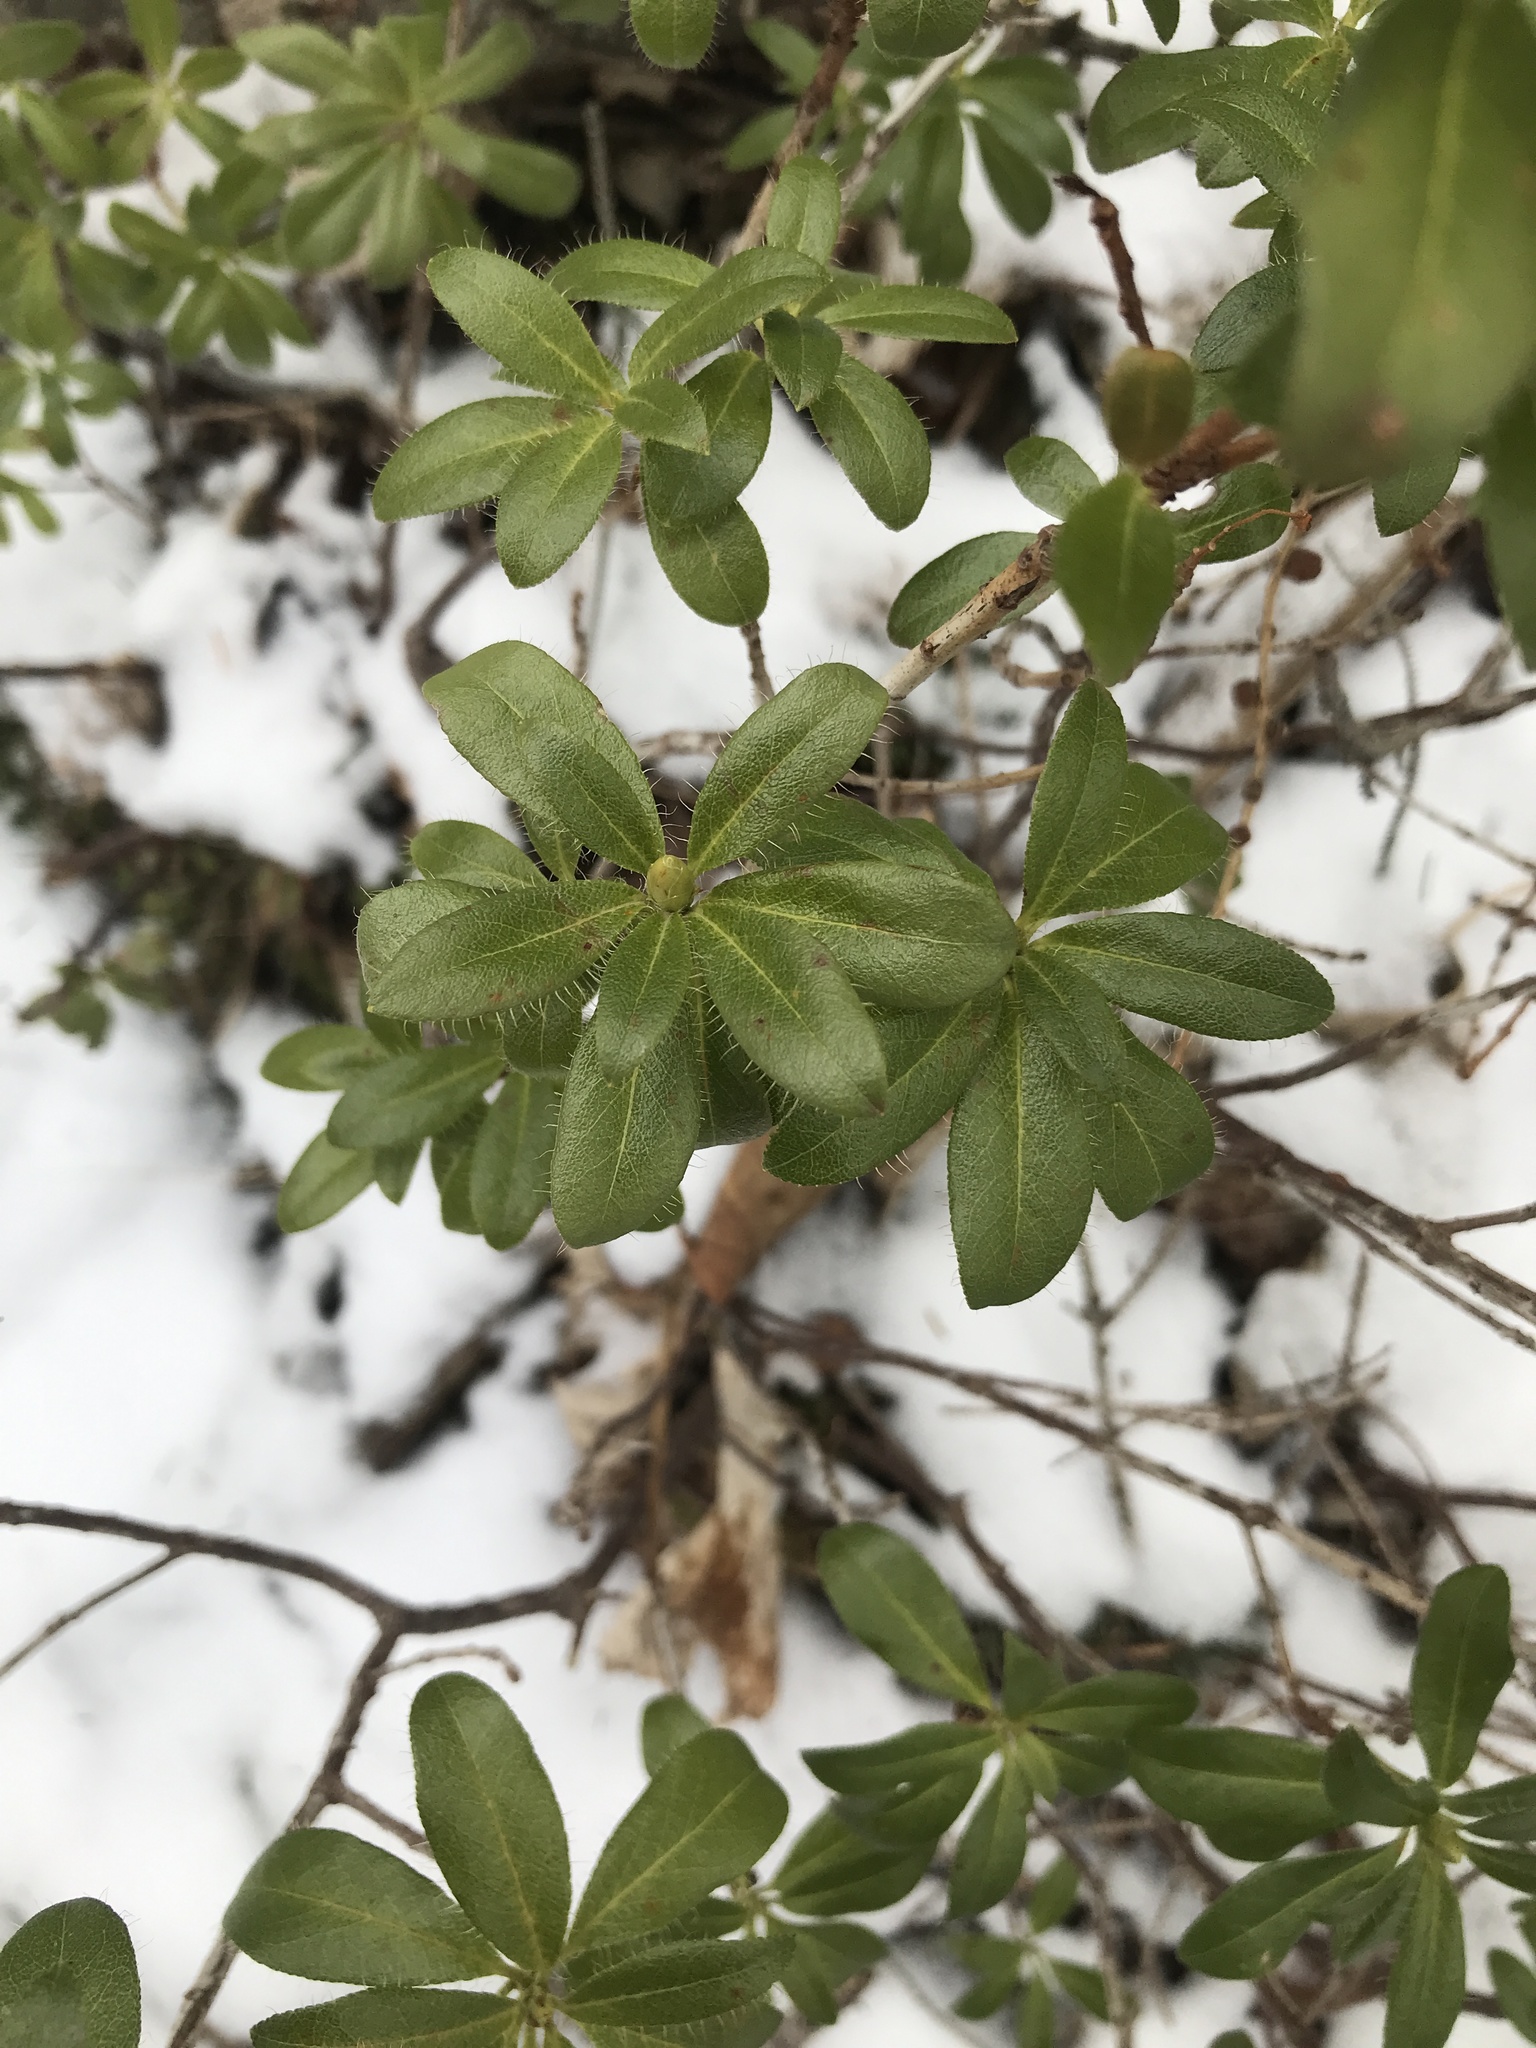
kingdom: Plantae
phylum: Tracheophyta
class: Magnoliopsida
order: Ericales
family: Ericaceae
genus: Rhododendron
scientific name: Rhododendron hirsutum
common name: Hairy alpenrose
